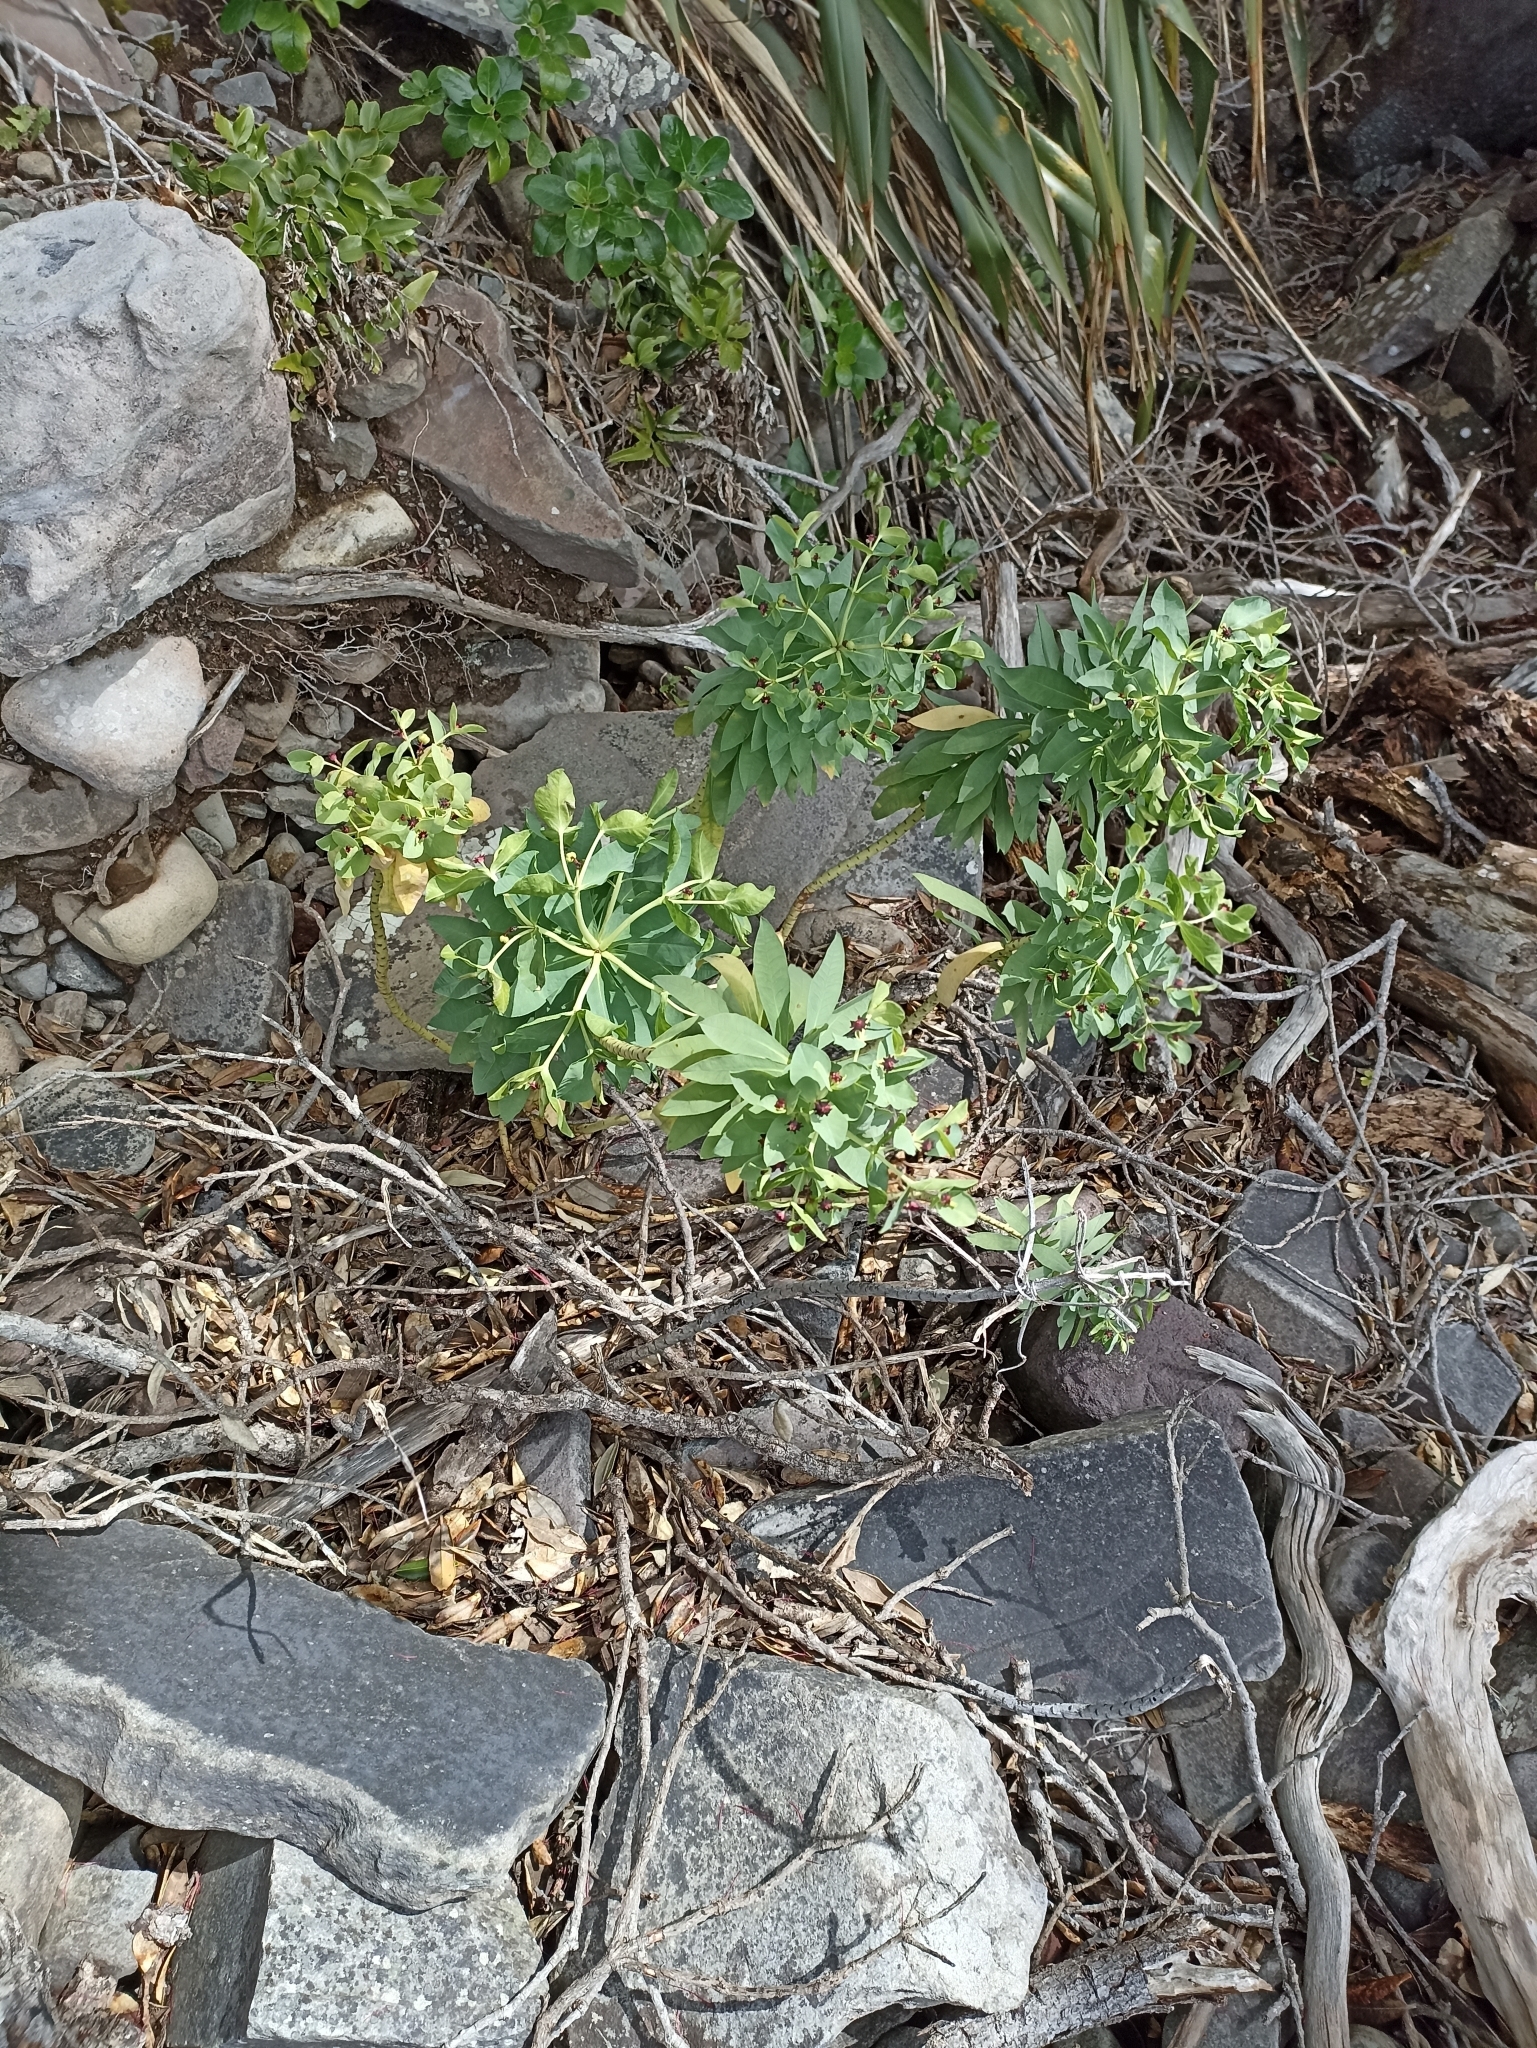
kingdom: Plantae
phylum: Tracheophyta
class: Magnoliopsida
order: Malpighiales
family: Euphorbiaceae
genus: Euphorbia
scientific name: Euphorbia glauca
